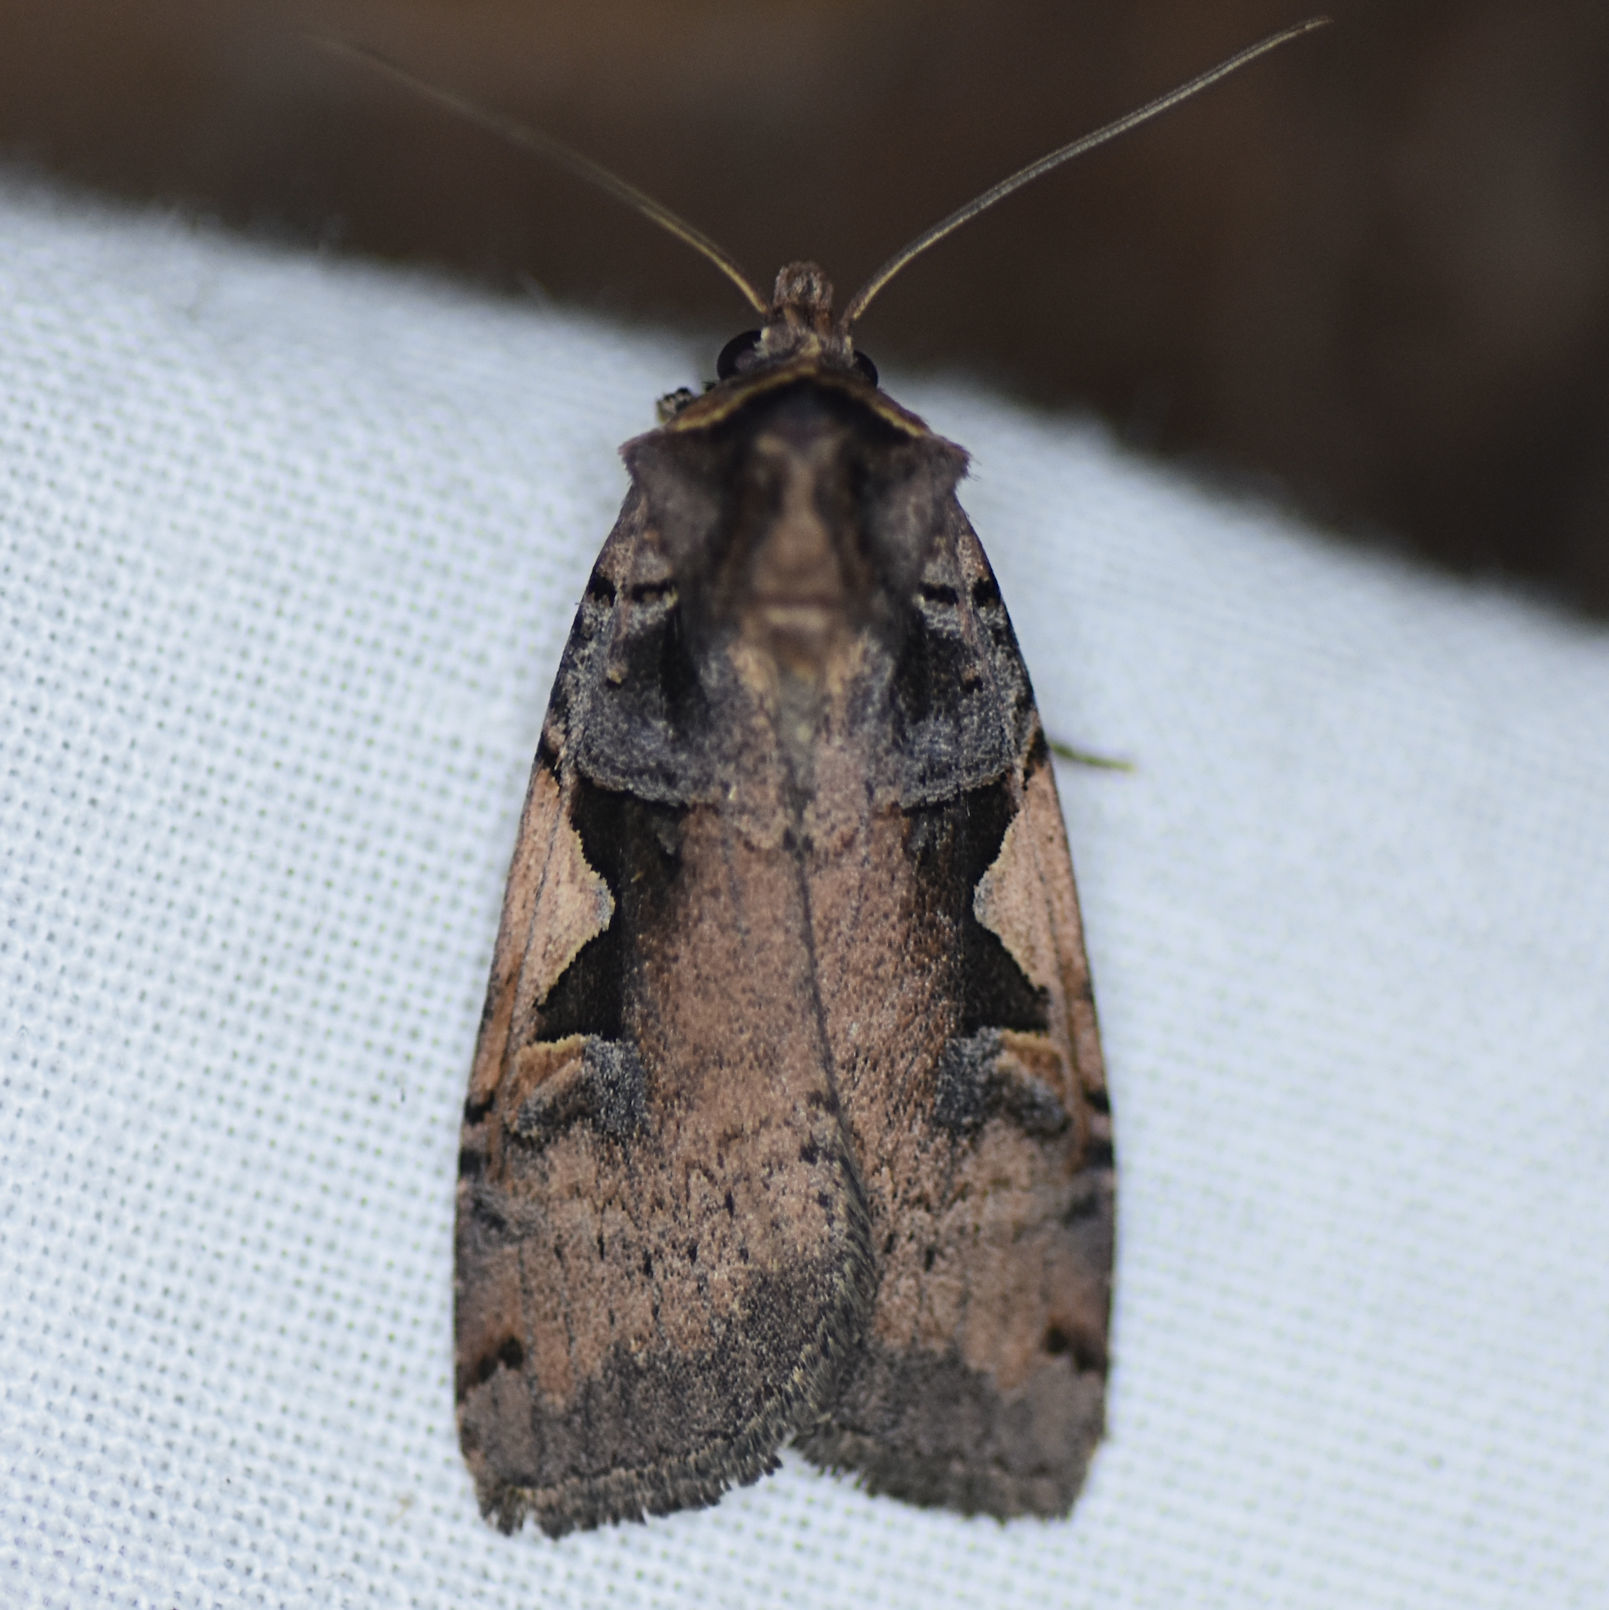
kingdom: Animalia
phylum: Arthropoda
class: Insecta
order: Lepidoptera
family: Noctuidae
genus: Xestia
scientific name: Xestia
